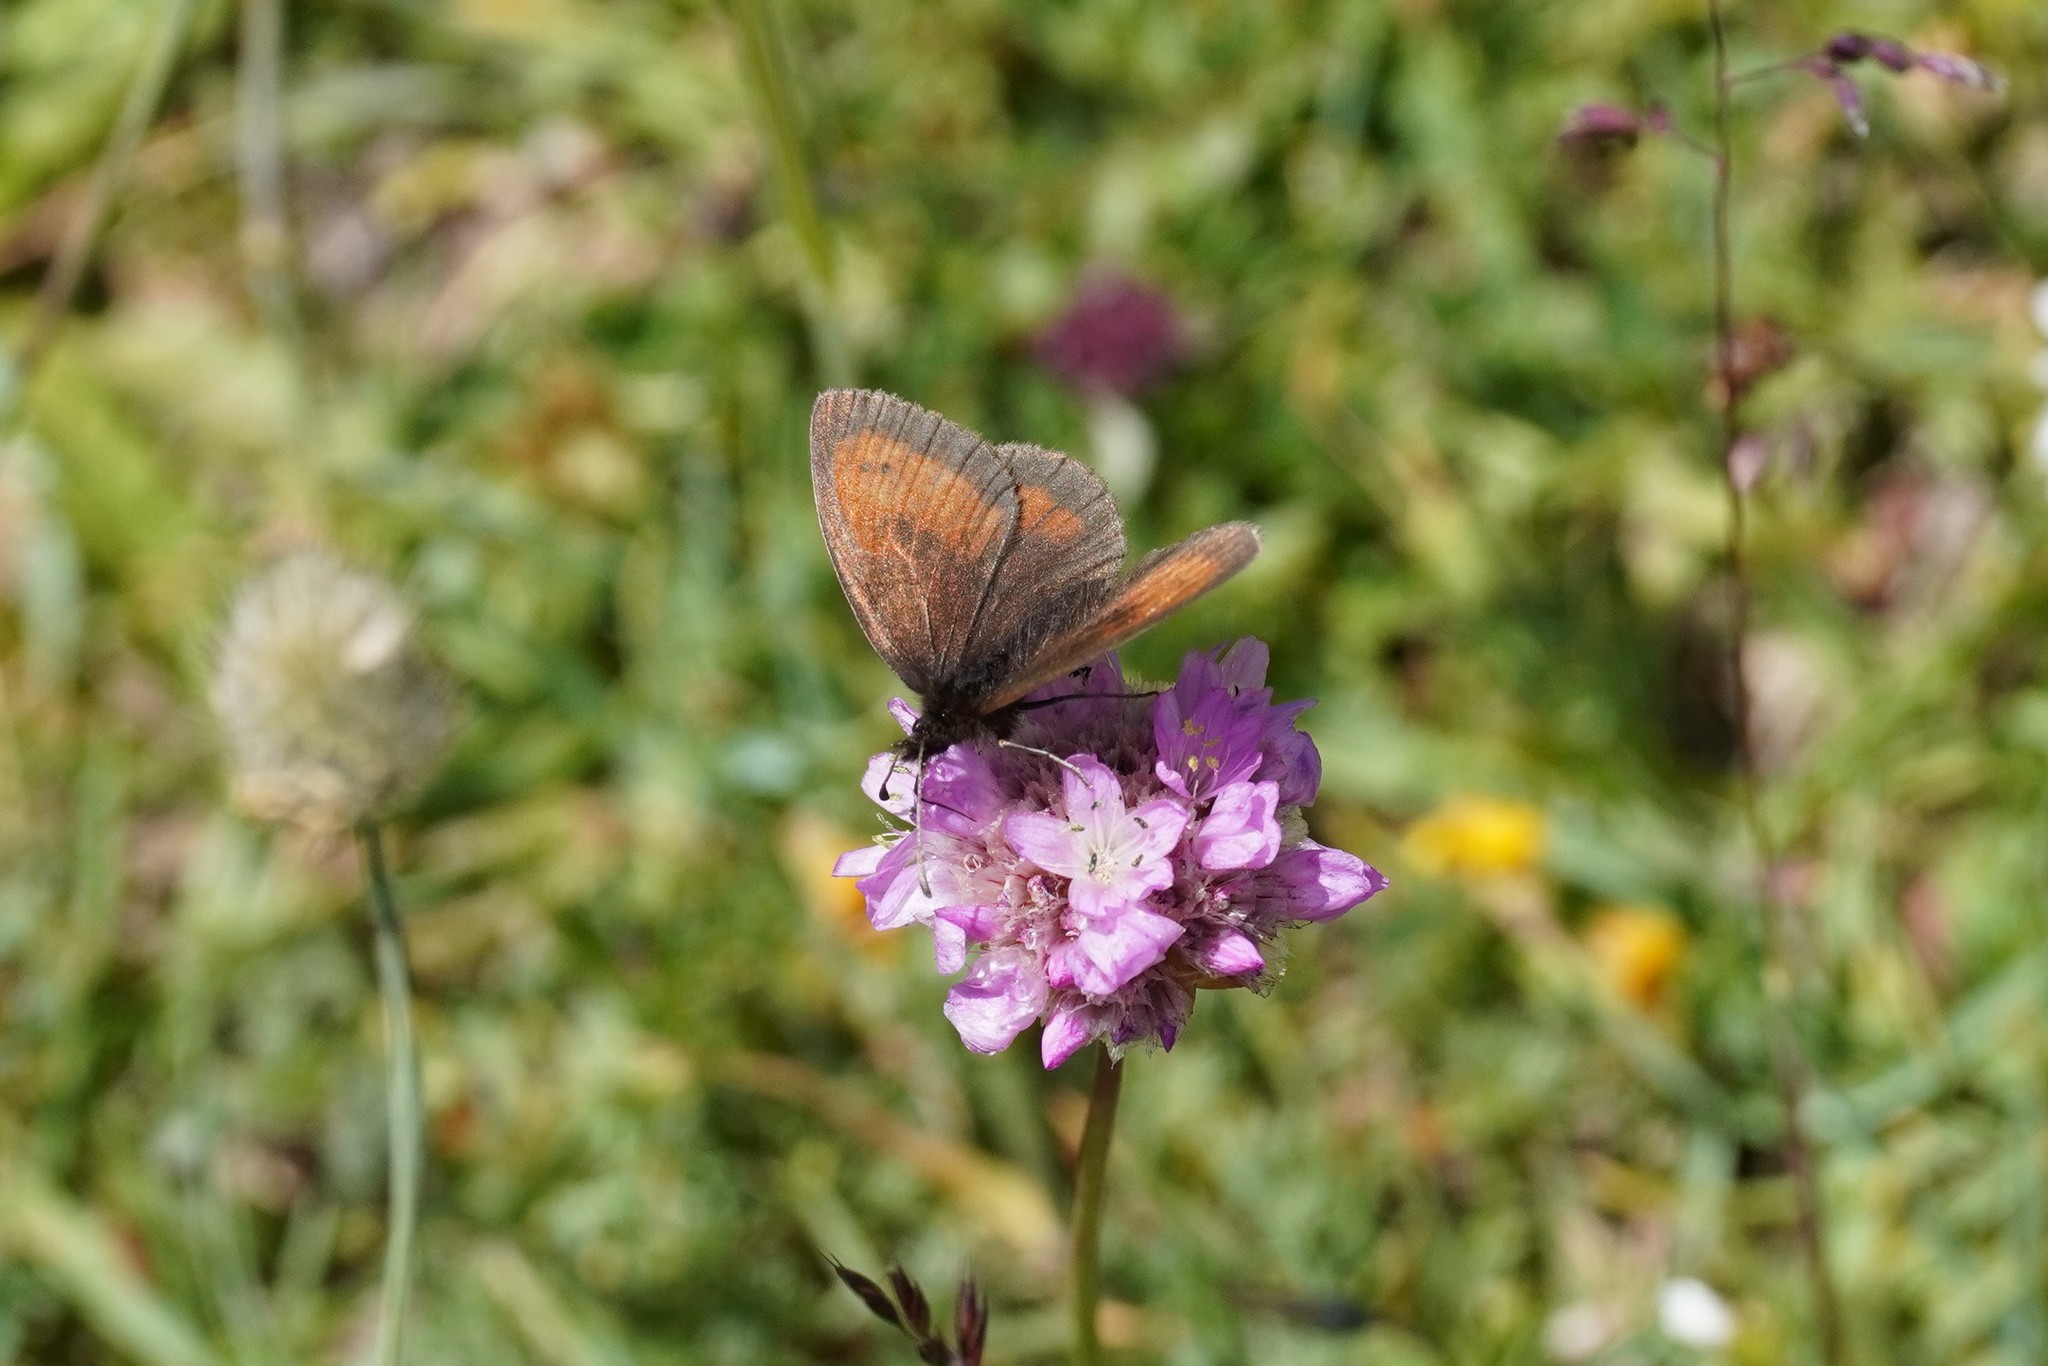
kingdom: Animalia
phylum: Arthropoda
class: Insecta
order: Lepidoptera
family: Nymphalidae
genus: Erebia
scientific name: Erebia mnestra
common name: Mnestra’s ringlet
